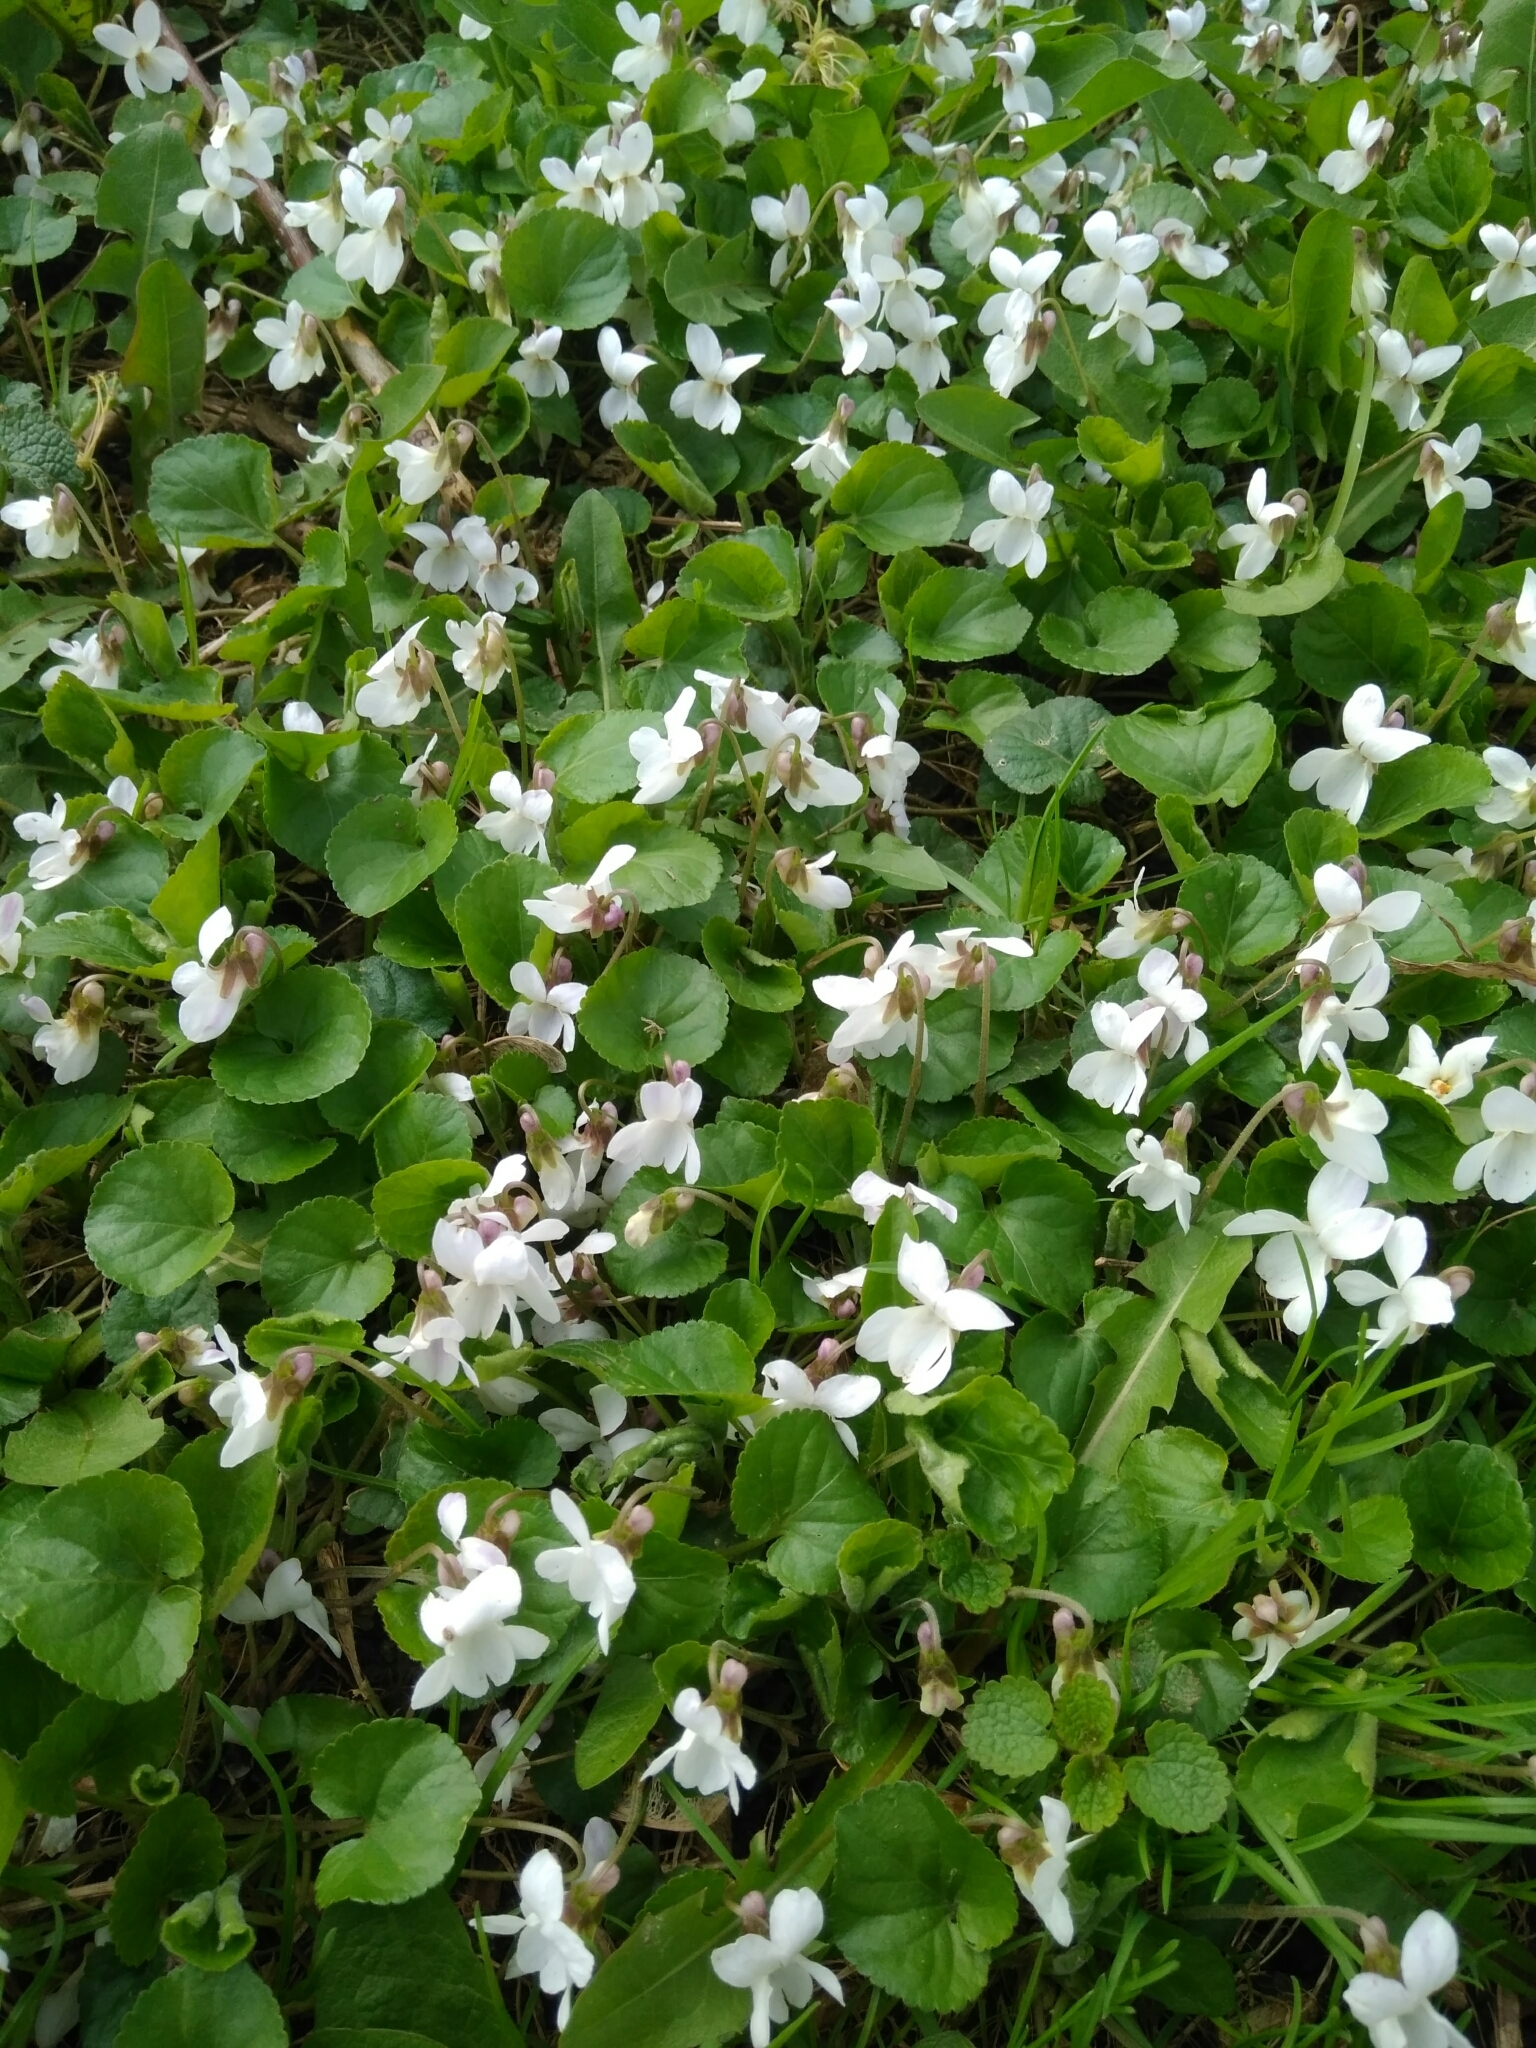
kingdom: Plantae
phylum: Tracheophyta
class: Magnoliopsida
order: Malpighiales
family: Violaceae
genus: Viola
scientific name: Viola odorata
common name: Sweet violet
